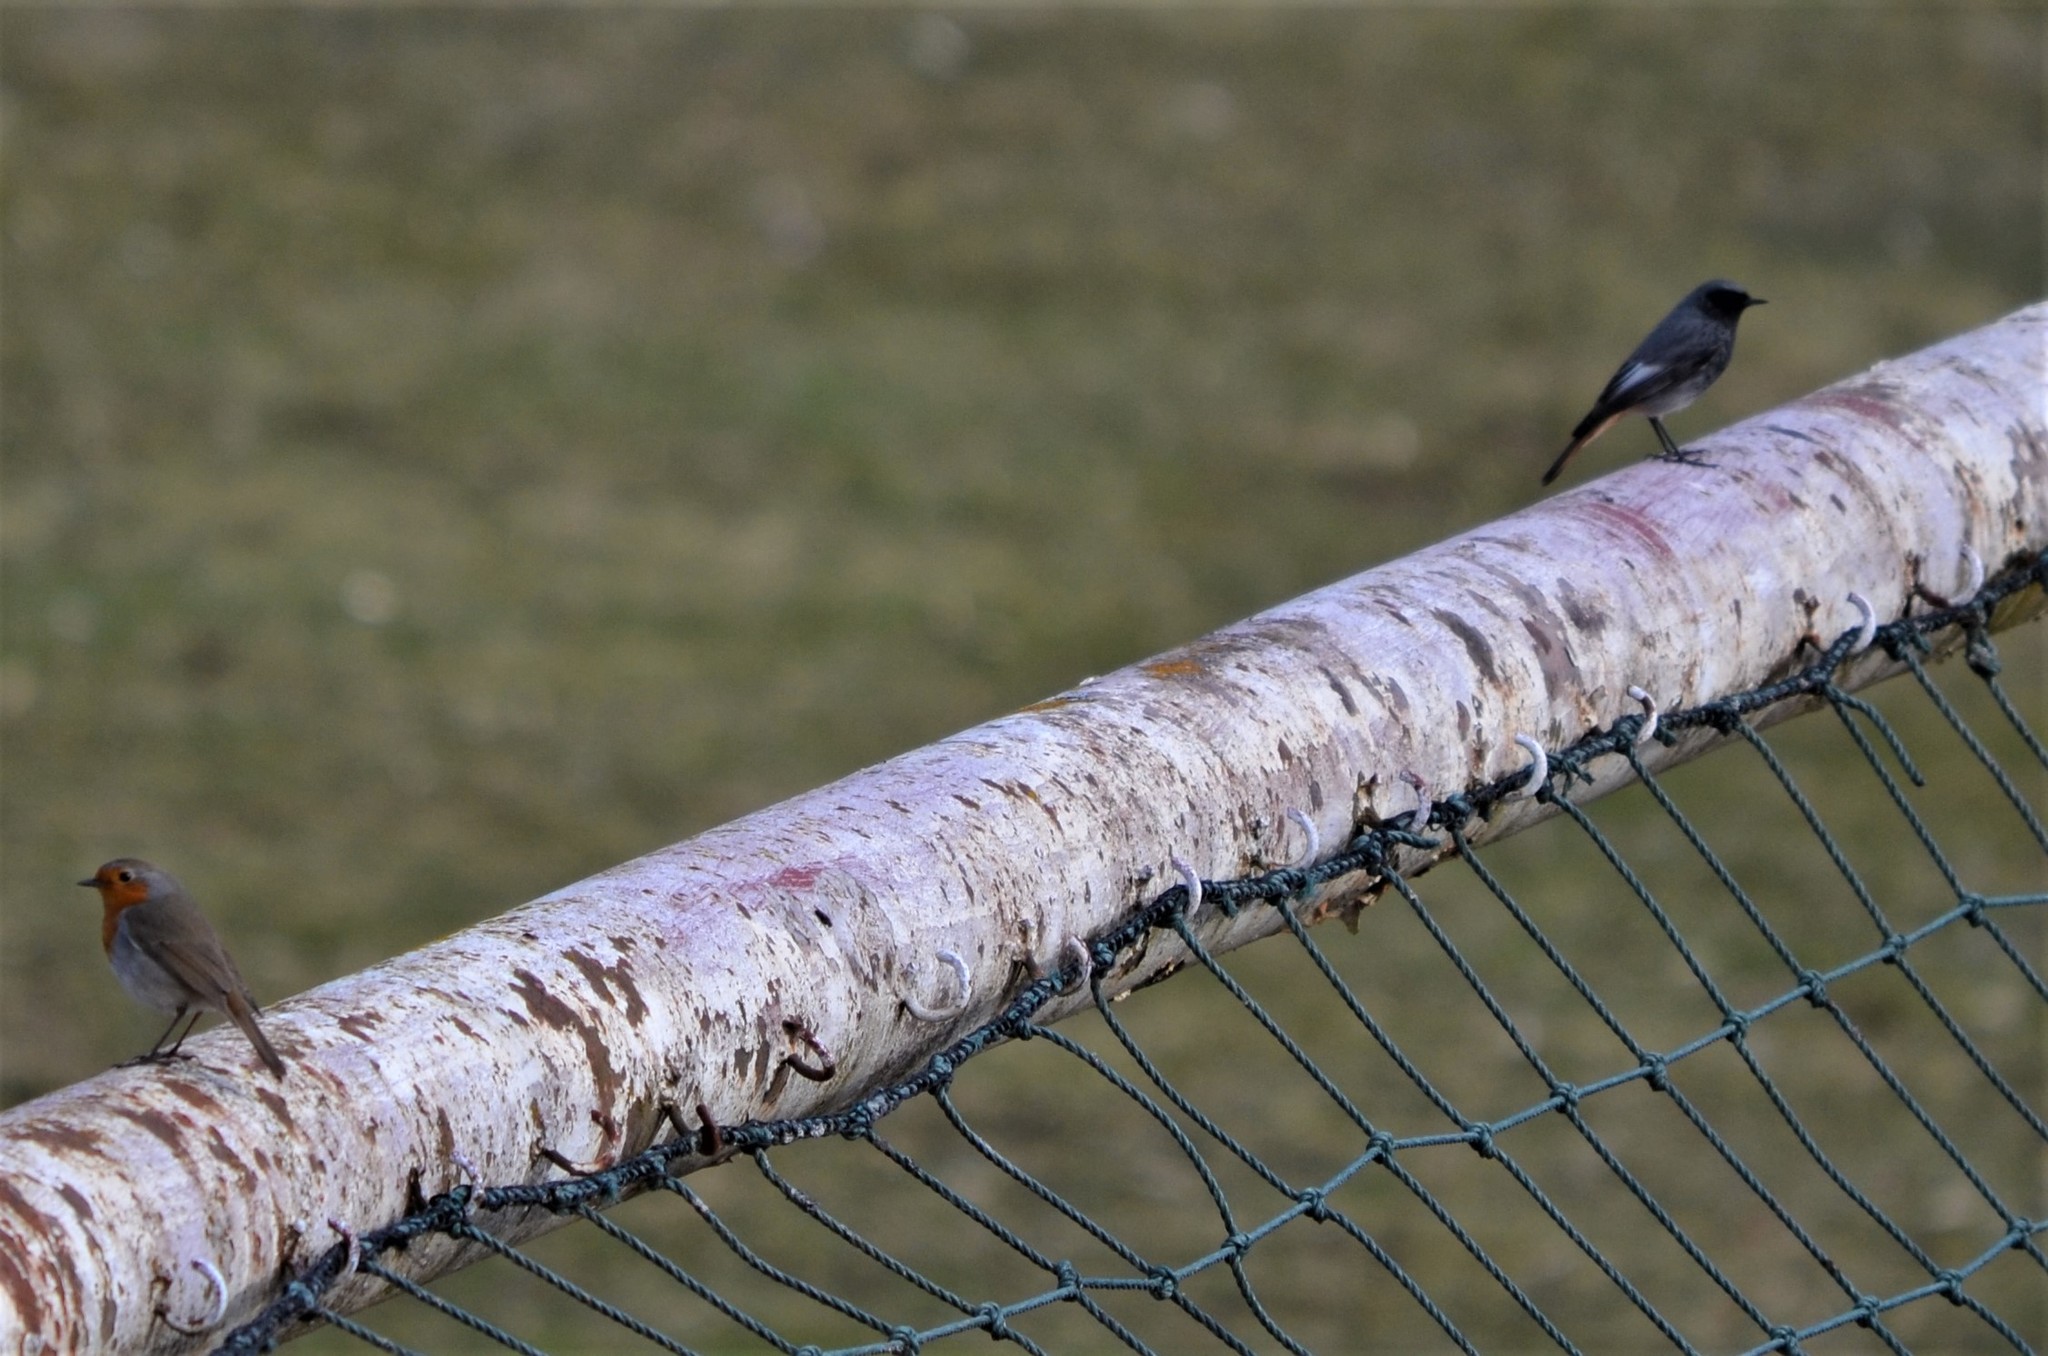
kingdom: Animalia
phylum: Chordata
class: Aves
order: Passeriformes
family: Muscicapidae
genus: Phoenicurus
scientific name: Phoenicurus ochruros
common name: Black redstart
